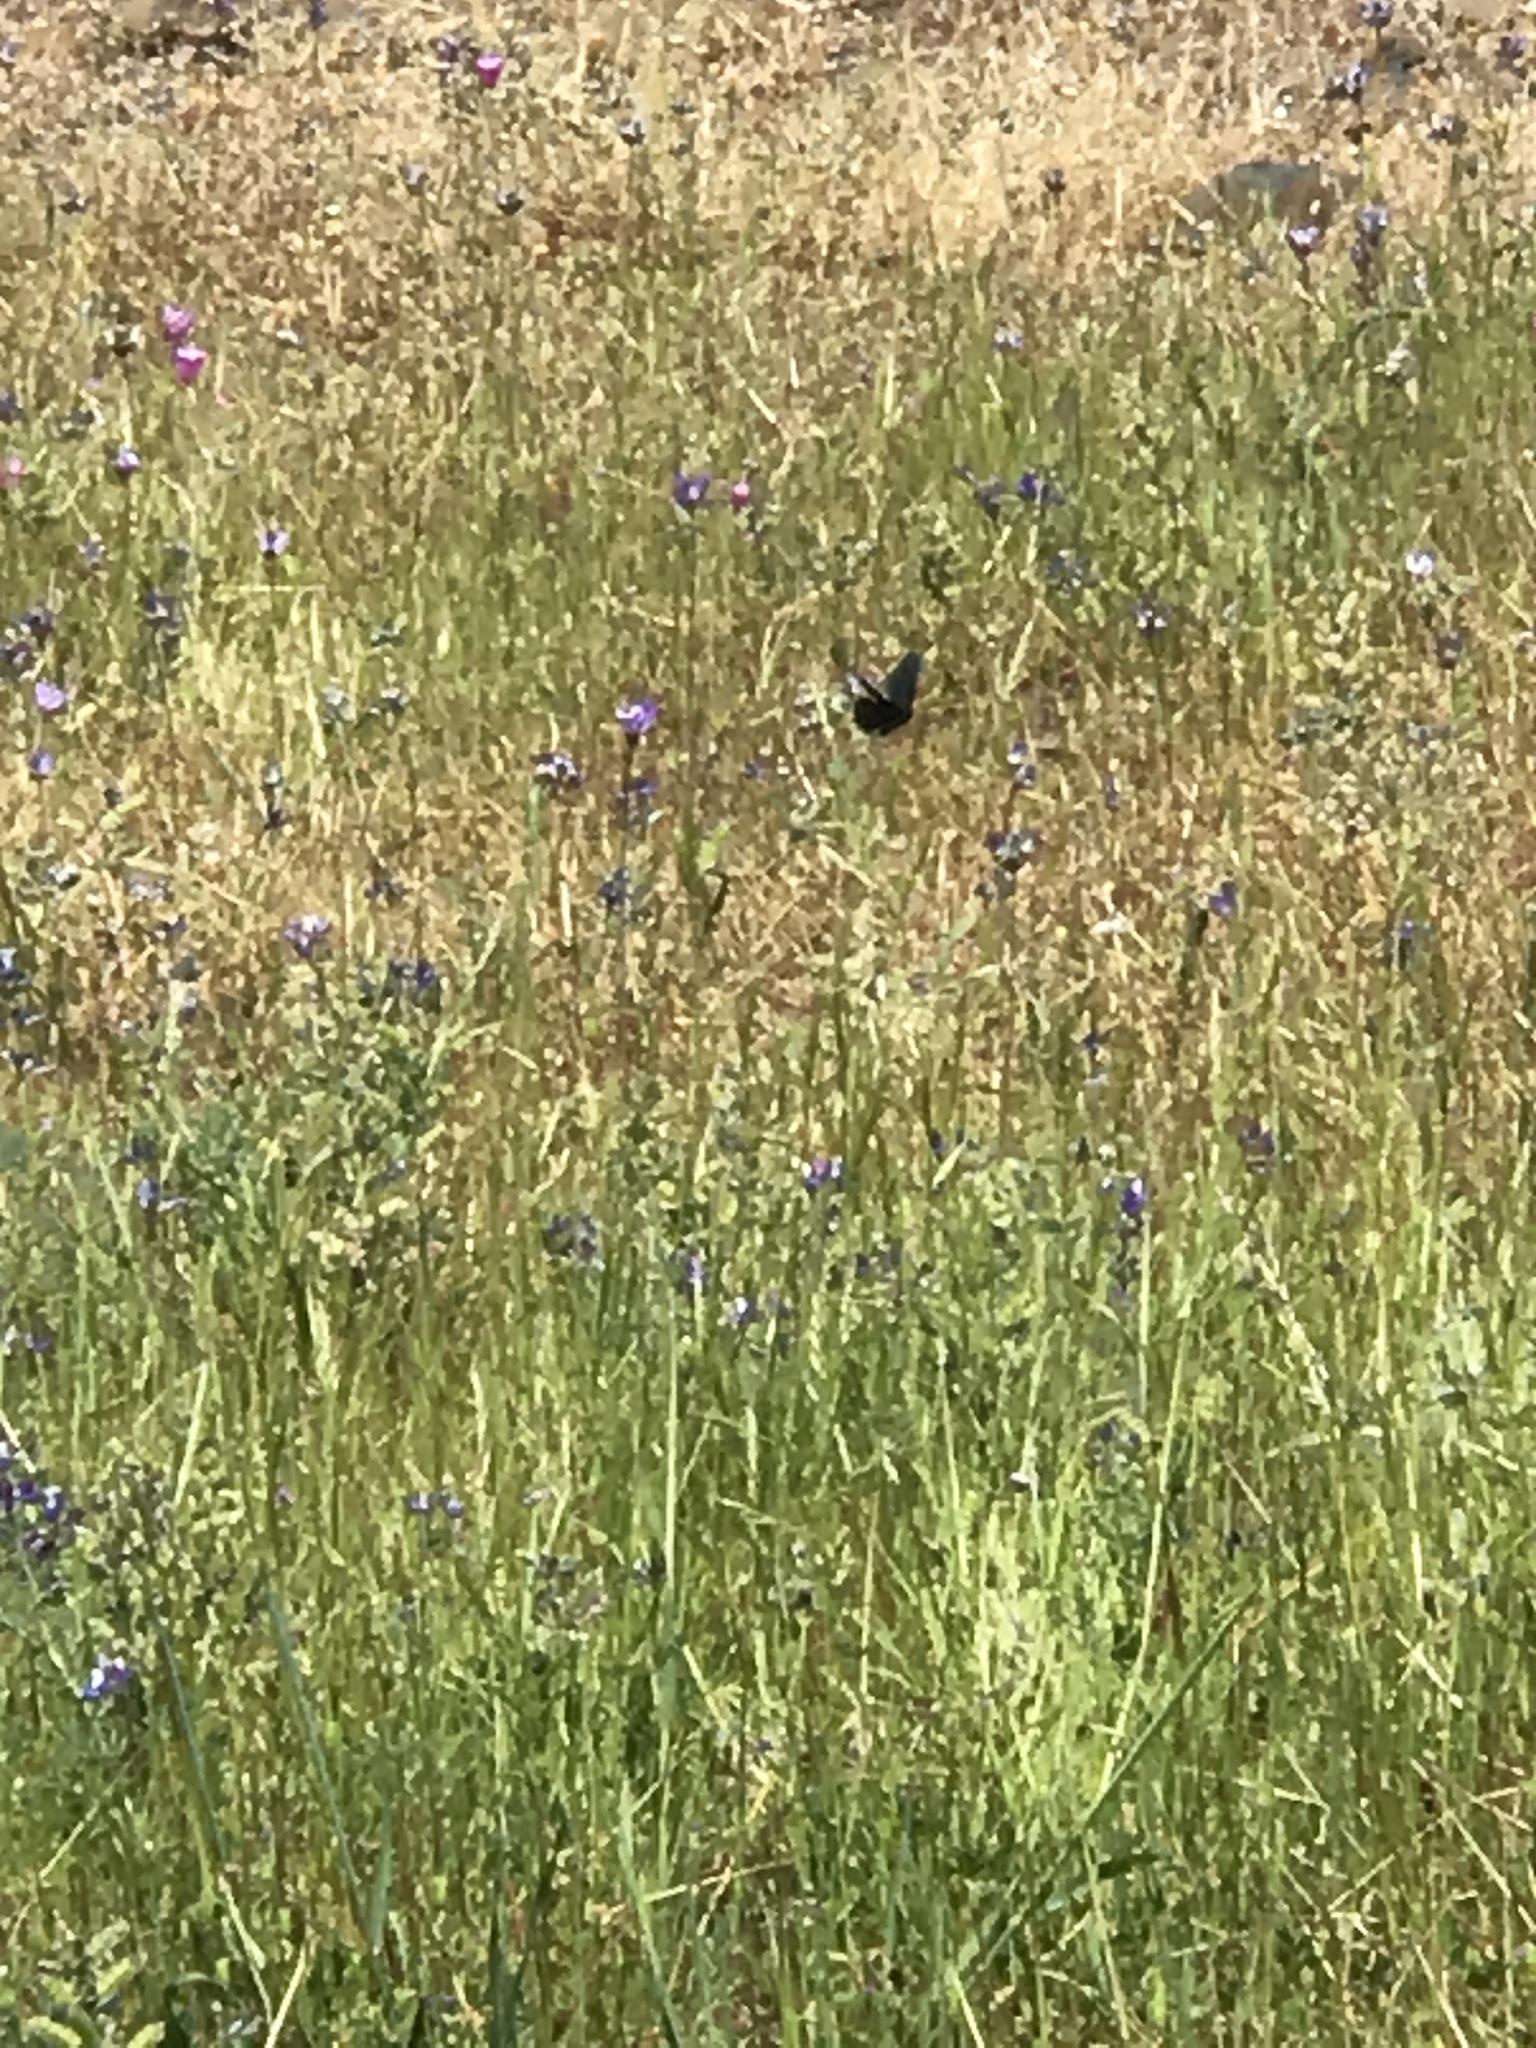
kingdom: Animalia
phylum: Arthropoda
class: Insecta
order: Lepidoptera
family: Papilionidae
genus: Battus
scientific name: Battus philenor
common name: Pipevine swallowtail
